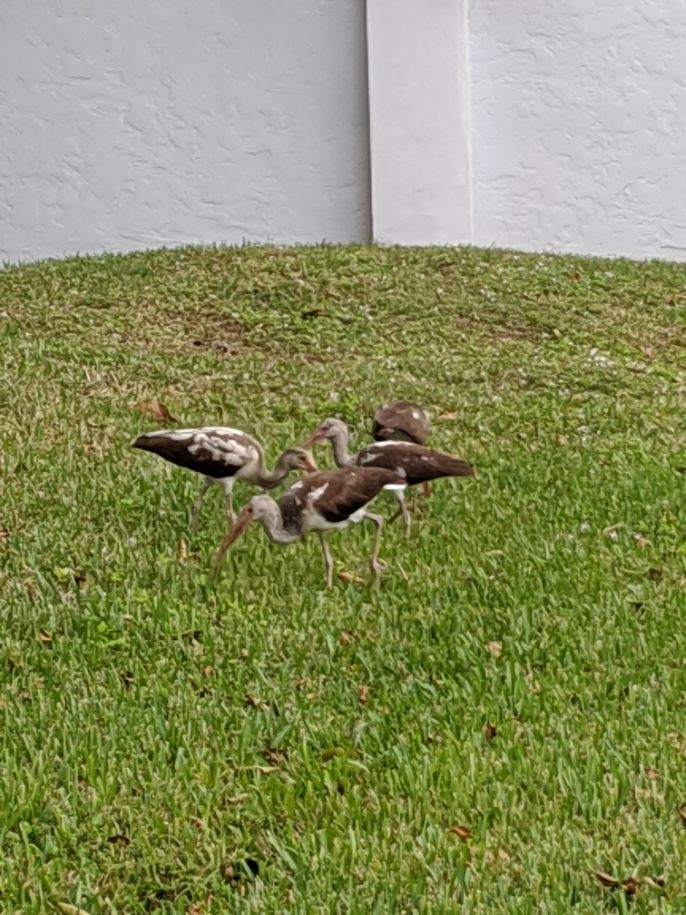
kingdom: Animalia
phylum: Chordata
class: Aves
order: Pelecaniformes
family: Threskiornithidae
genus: Eudocimus
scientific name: Eudocimus albus
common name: White ibis
